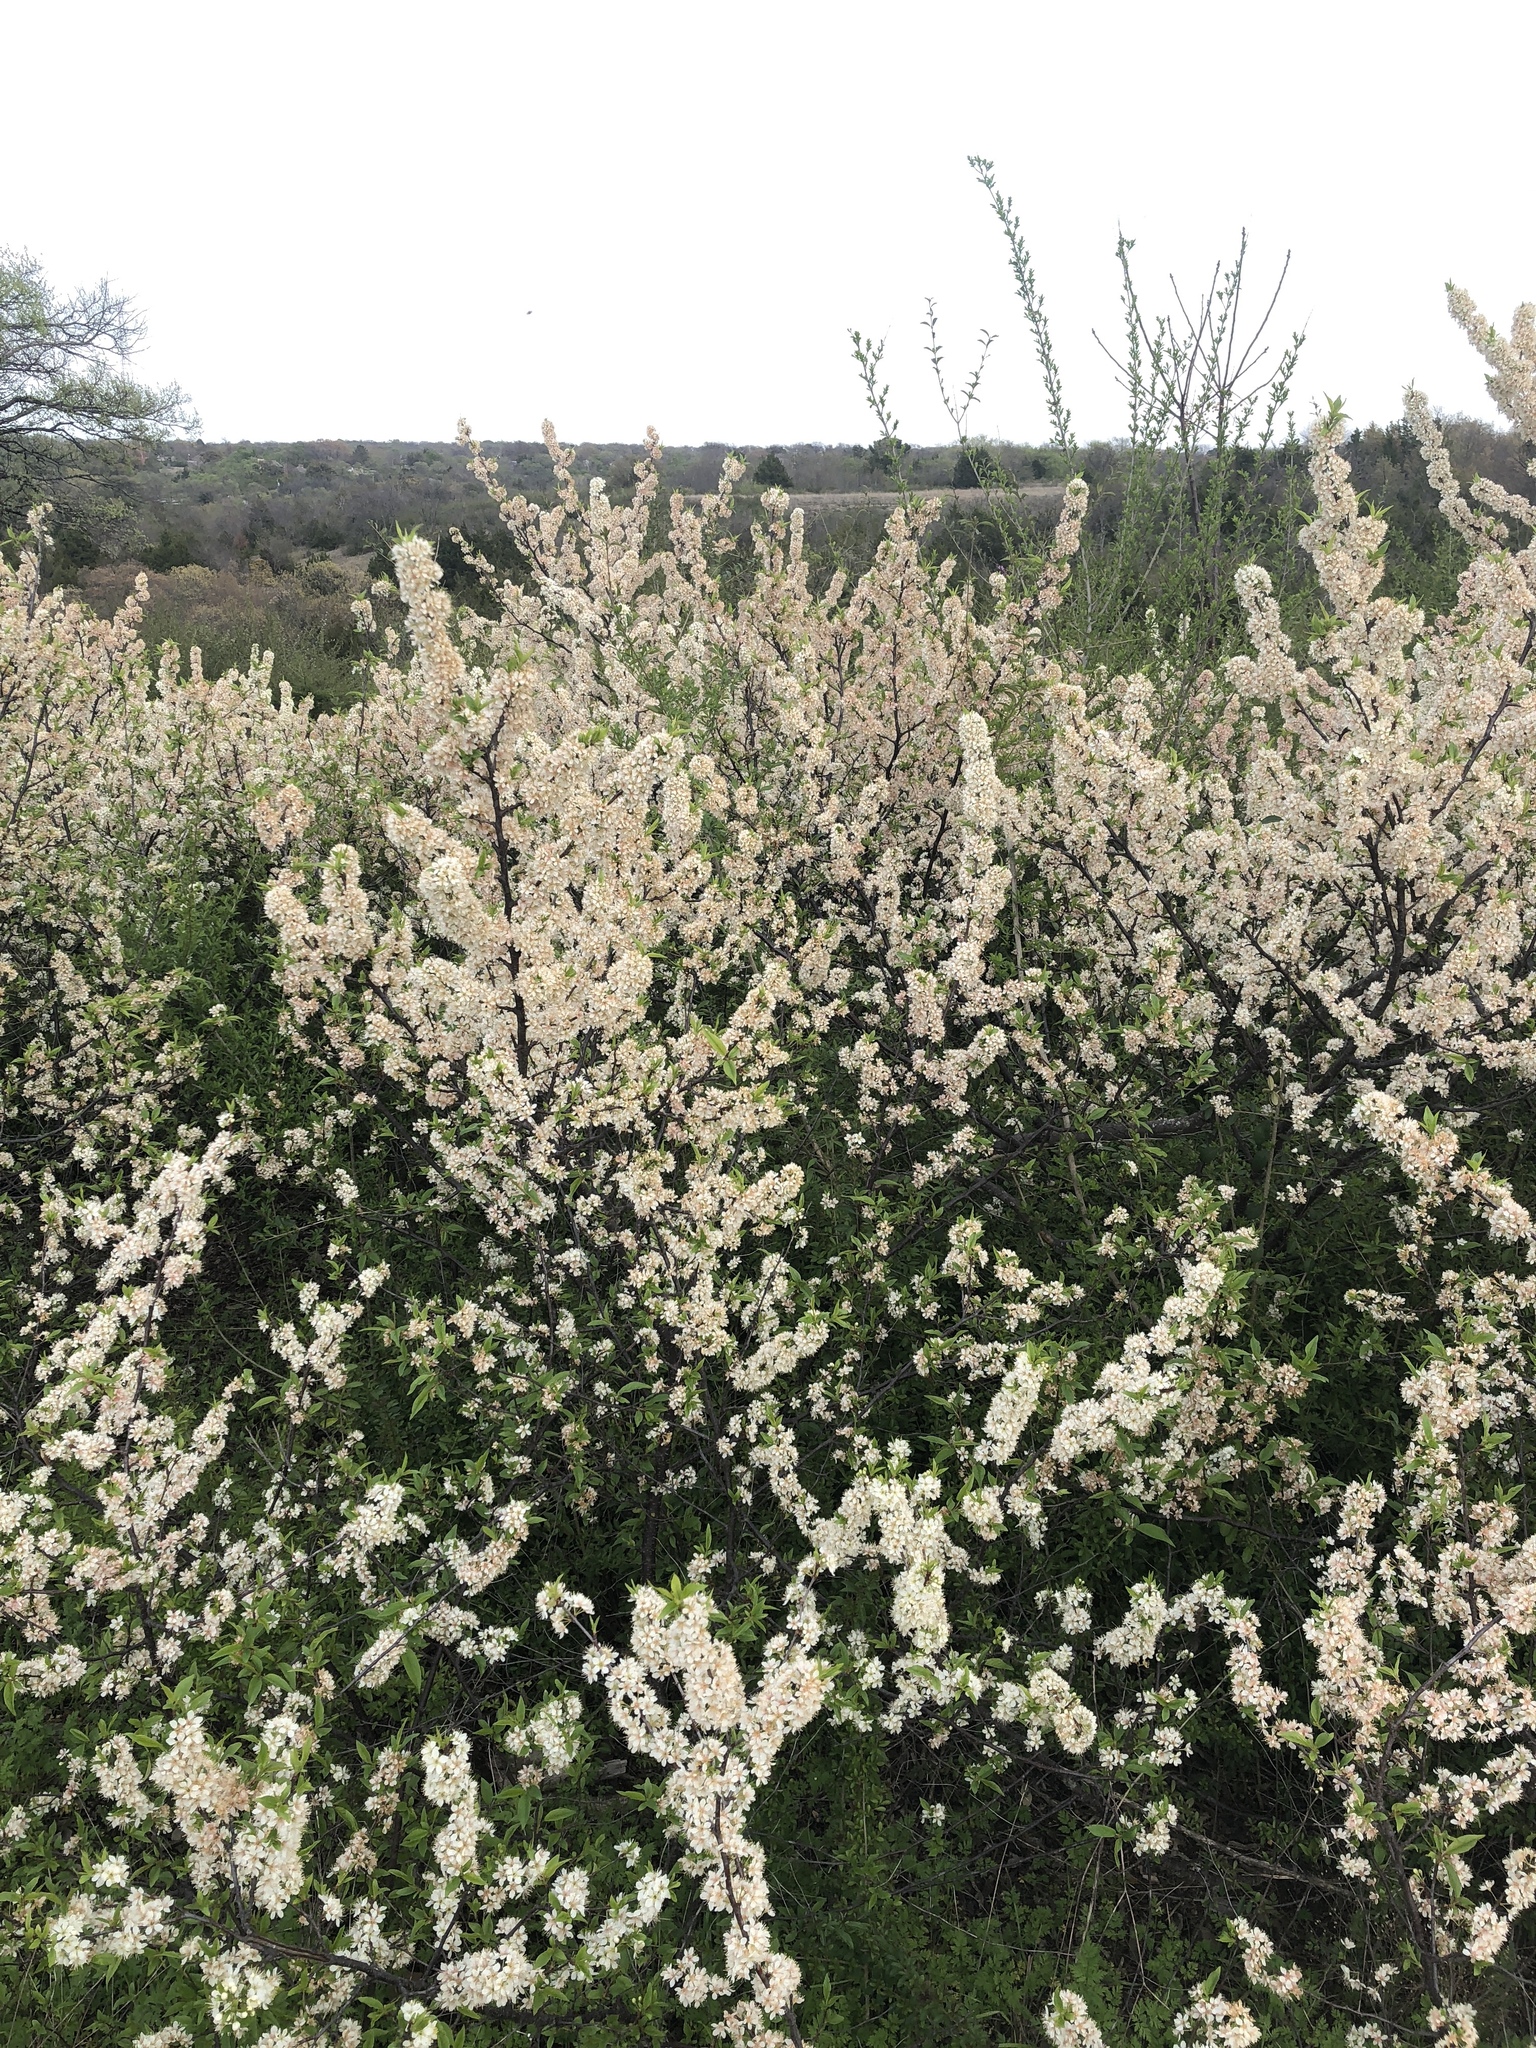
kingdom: Plantae
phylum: Tracheophyta
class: Magnoliopsida
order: Rosales
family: Rosaceae
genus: Prunus
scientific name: Prunus rivularis
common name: Creek plum
